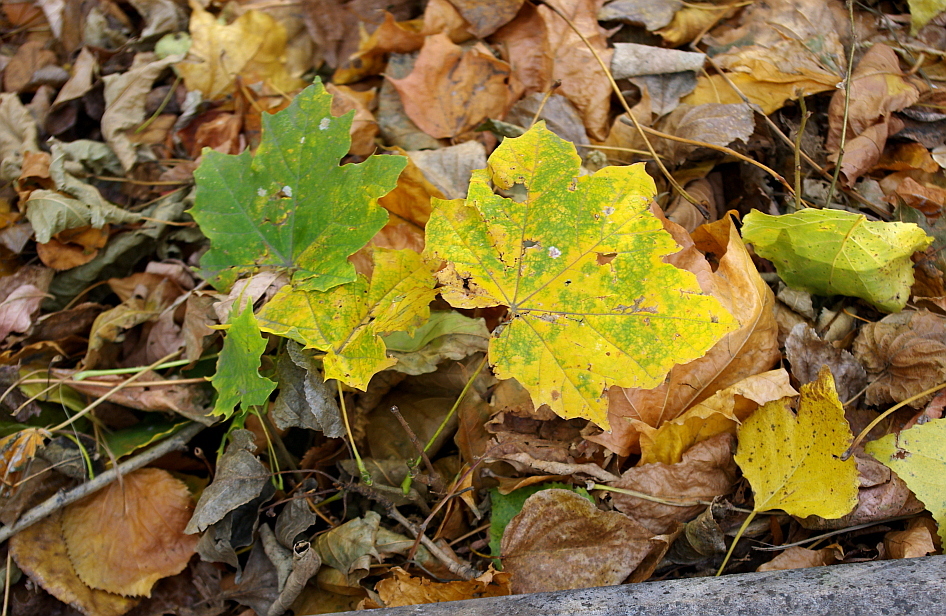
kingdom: Plantae
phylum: Tracheophyta
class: Magnoliopsida
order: Sapindales
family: Sapindaceae
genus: Acer
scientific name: Acer platanoides
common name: Norway maple
